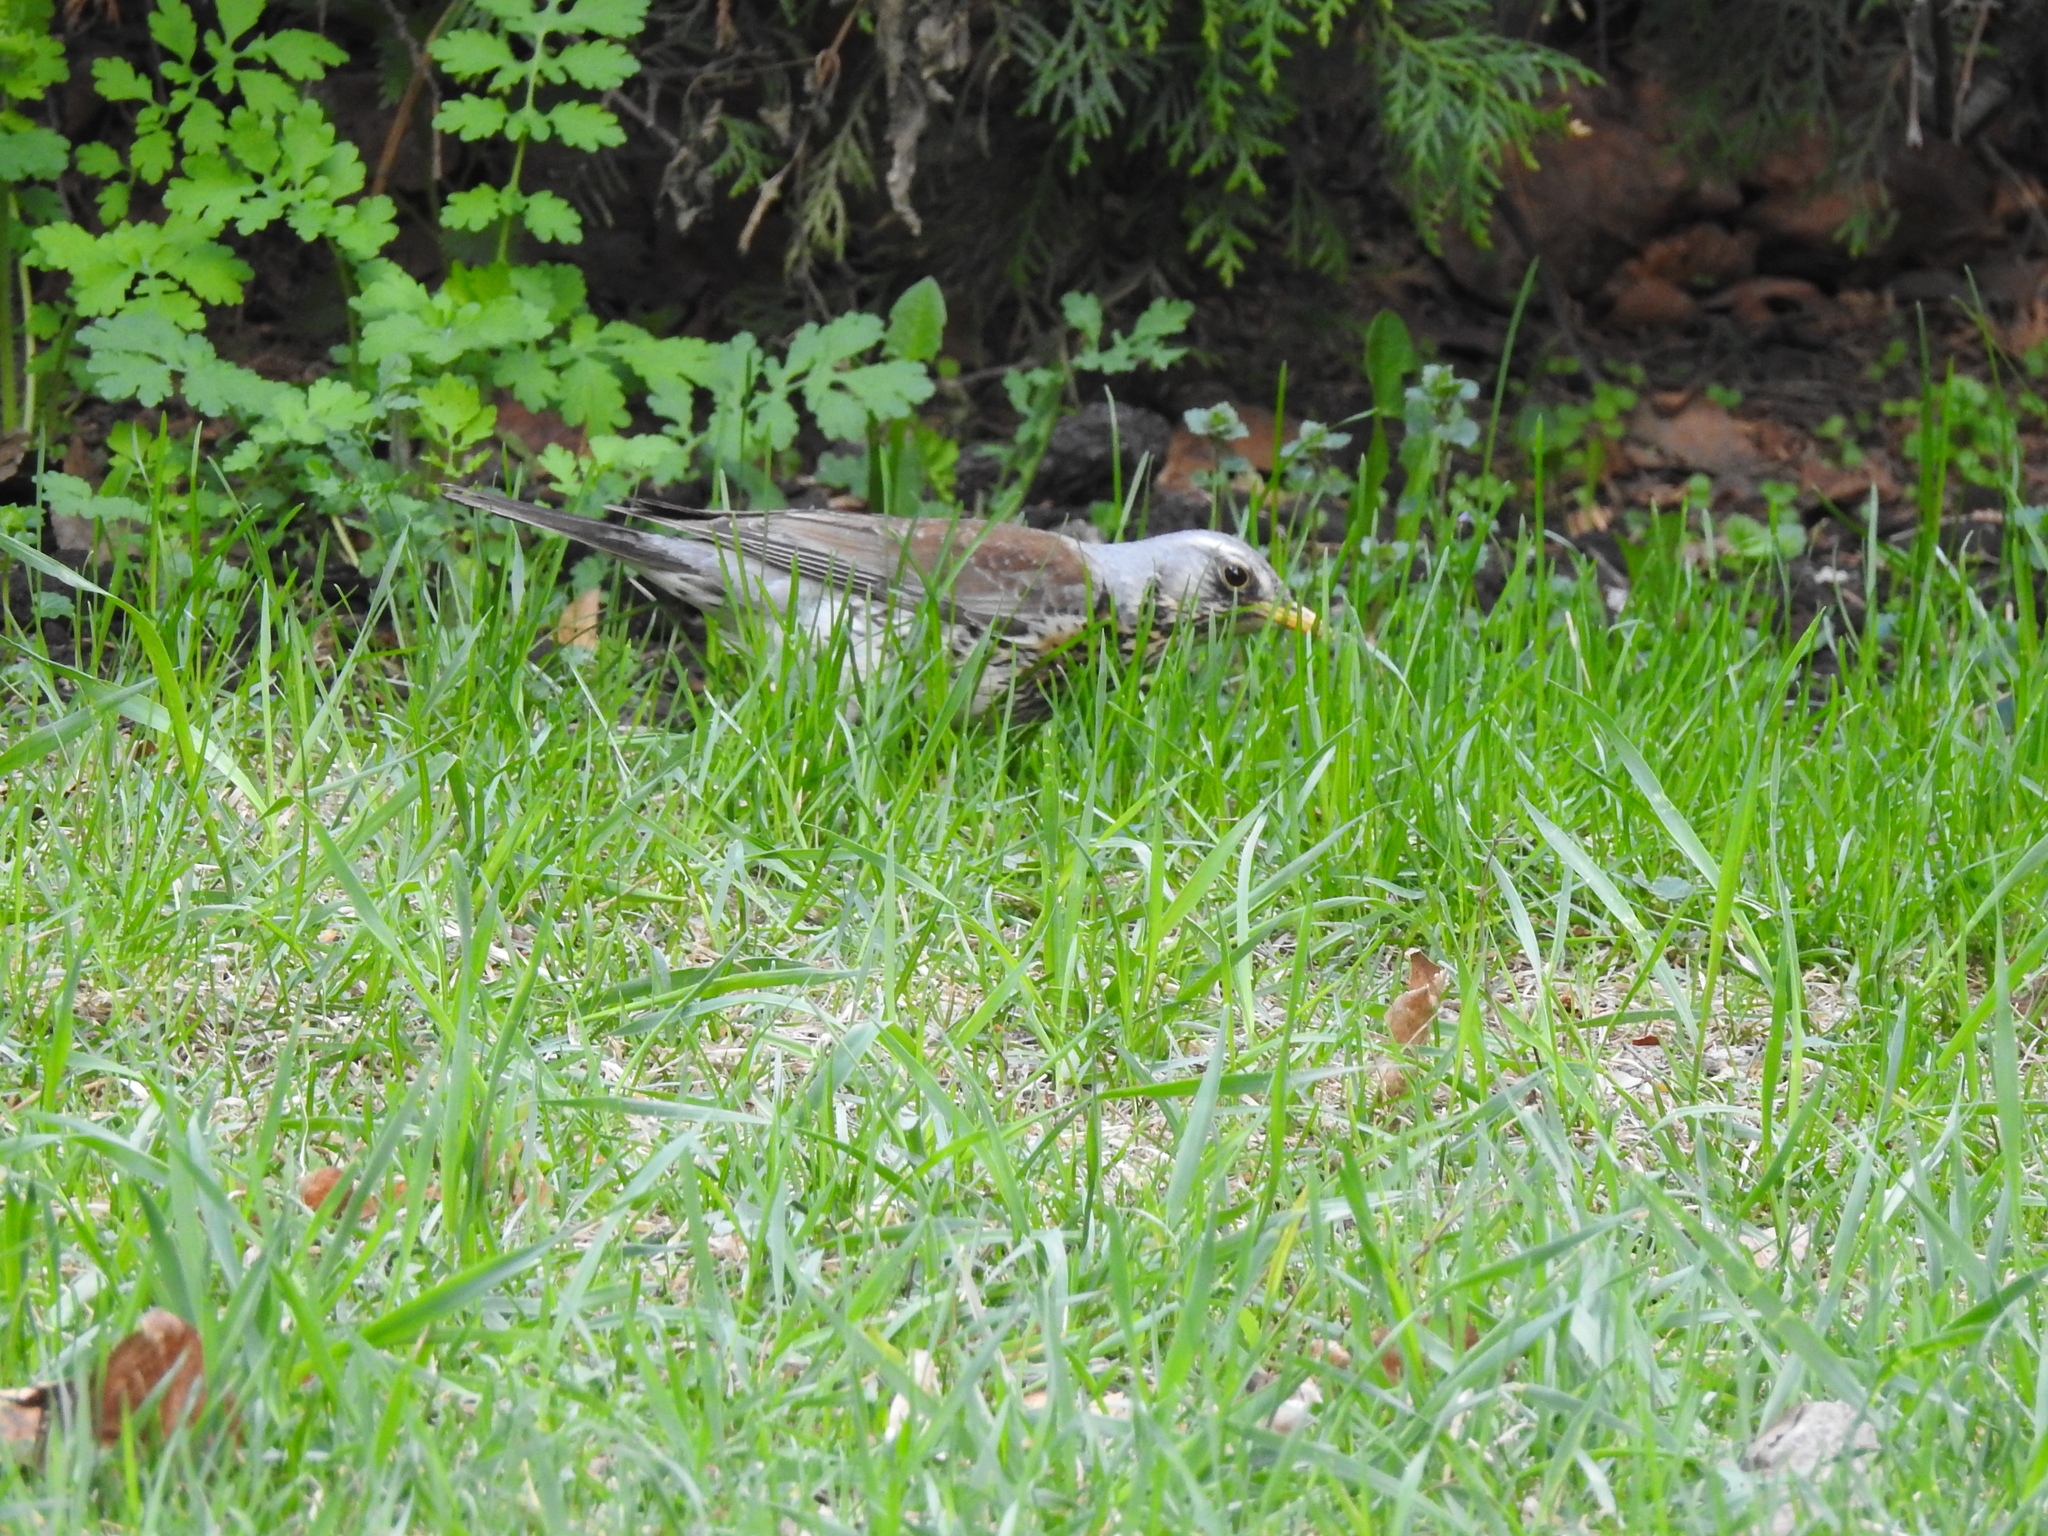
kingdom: Animalia
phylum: Chordata
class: Aves
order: Passeriformes
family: Turdidae
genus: Turdus
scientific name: Turdus pilaris
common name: Fieldfare
